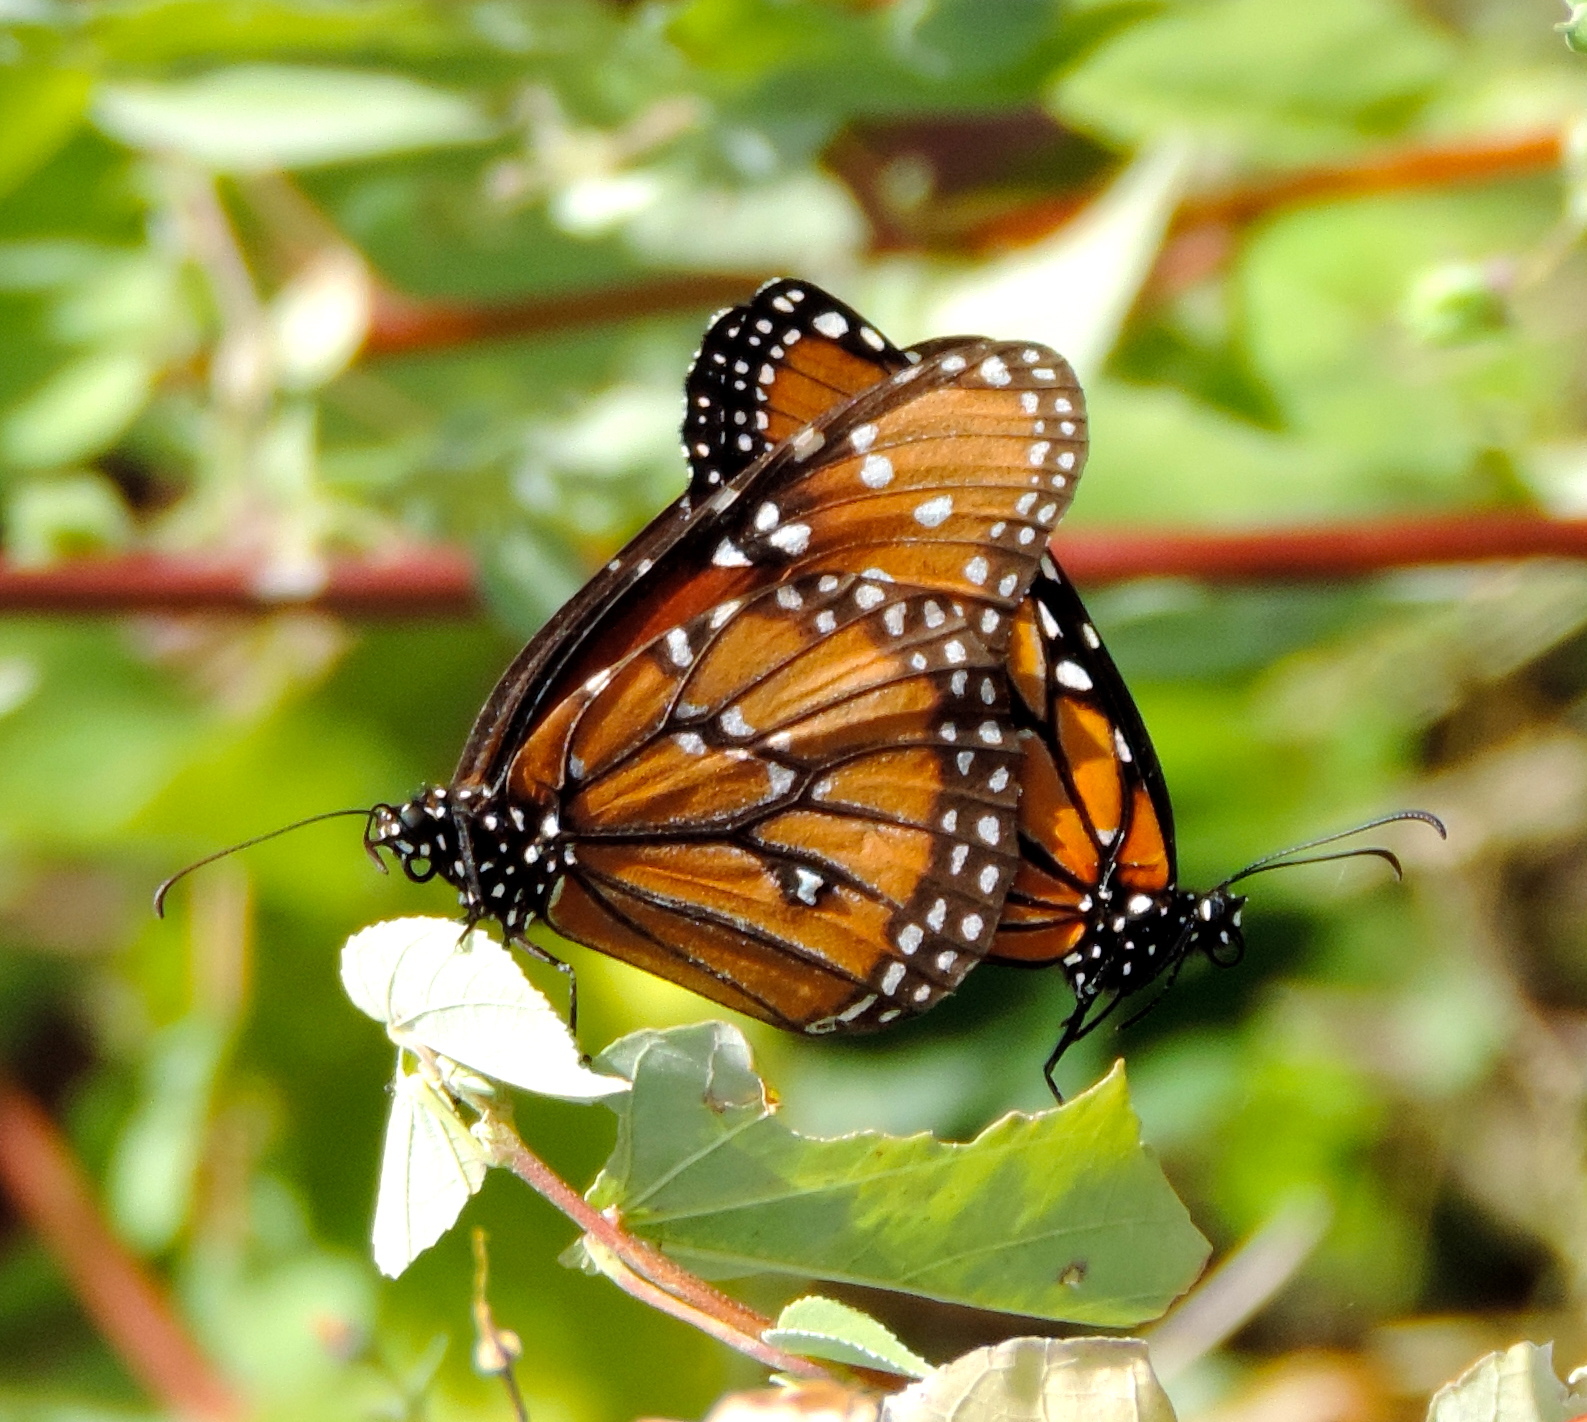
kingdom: Animalia
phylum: Arthropoda
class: Insecta
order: Lepidoptera
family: Nymphalidae
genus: Danaus
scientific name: Danaus gilippus
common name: Queen
